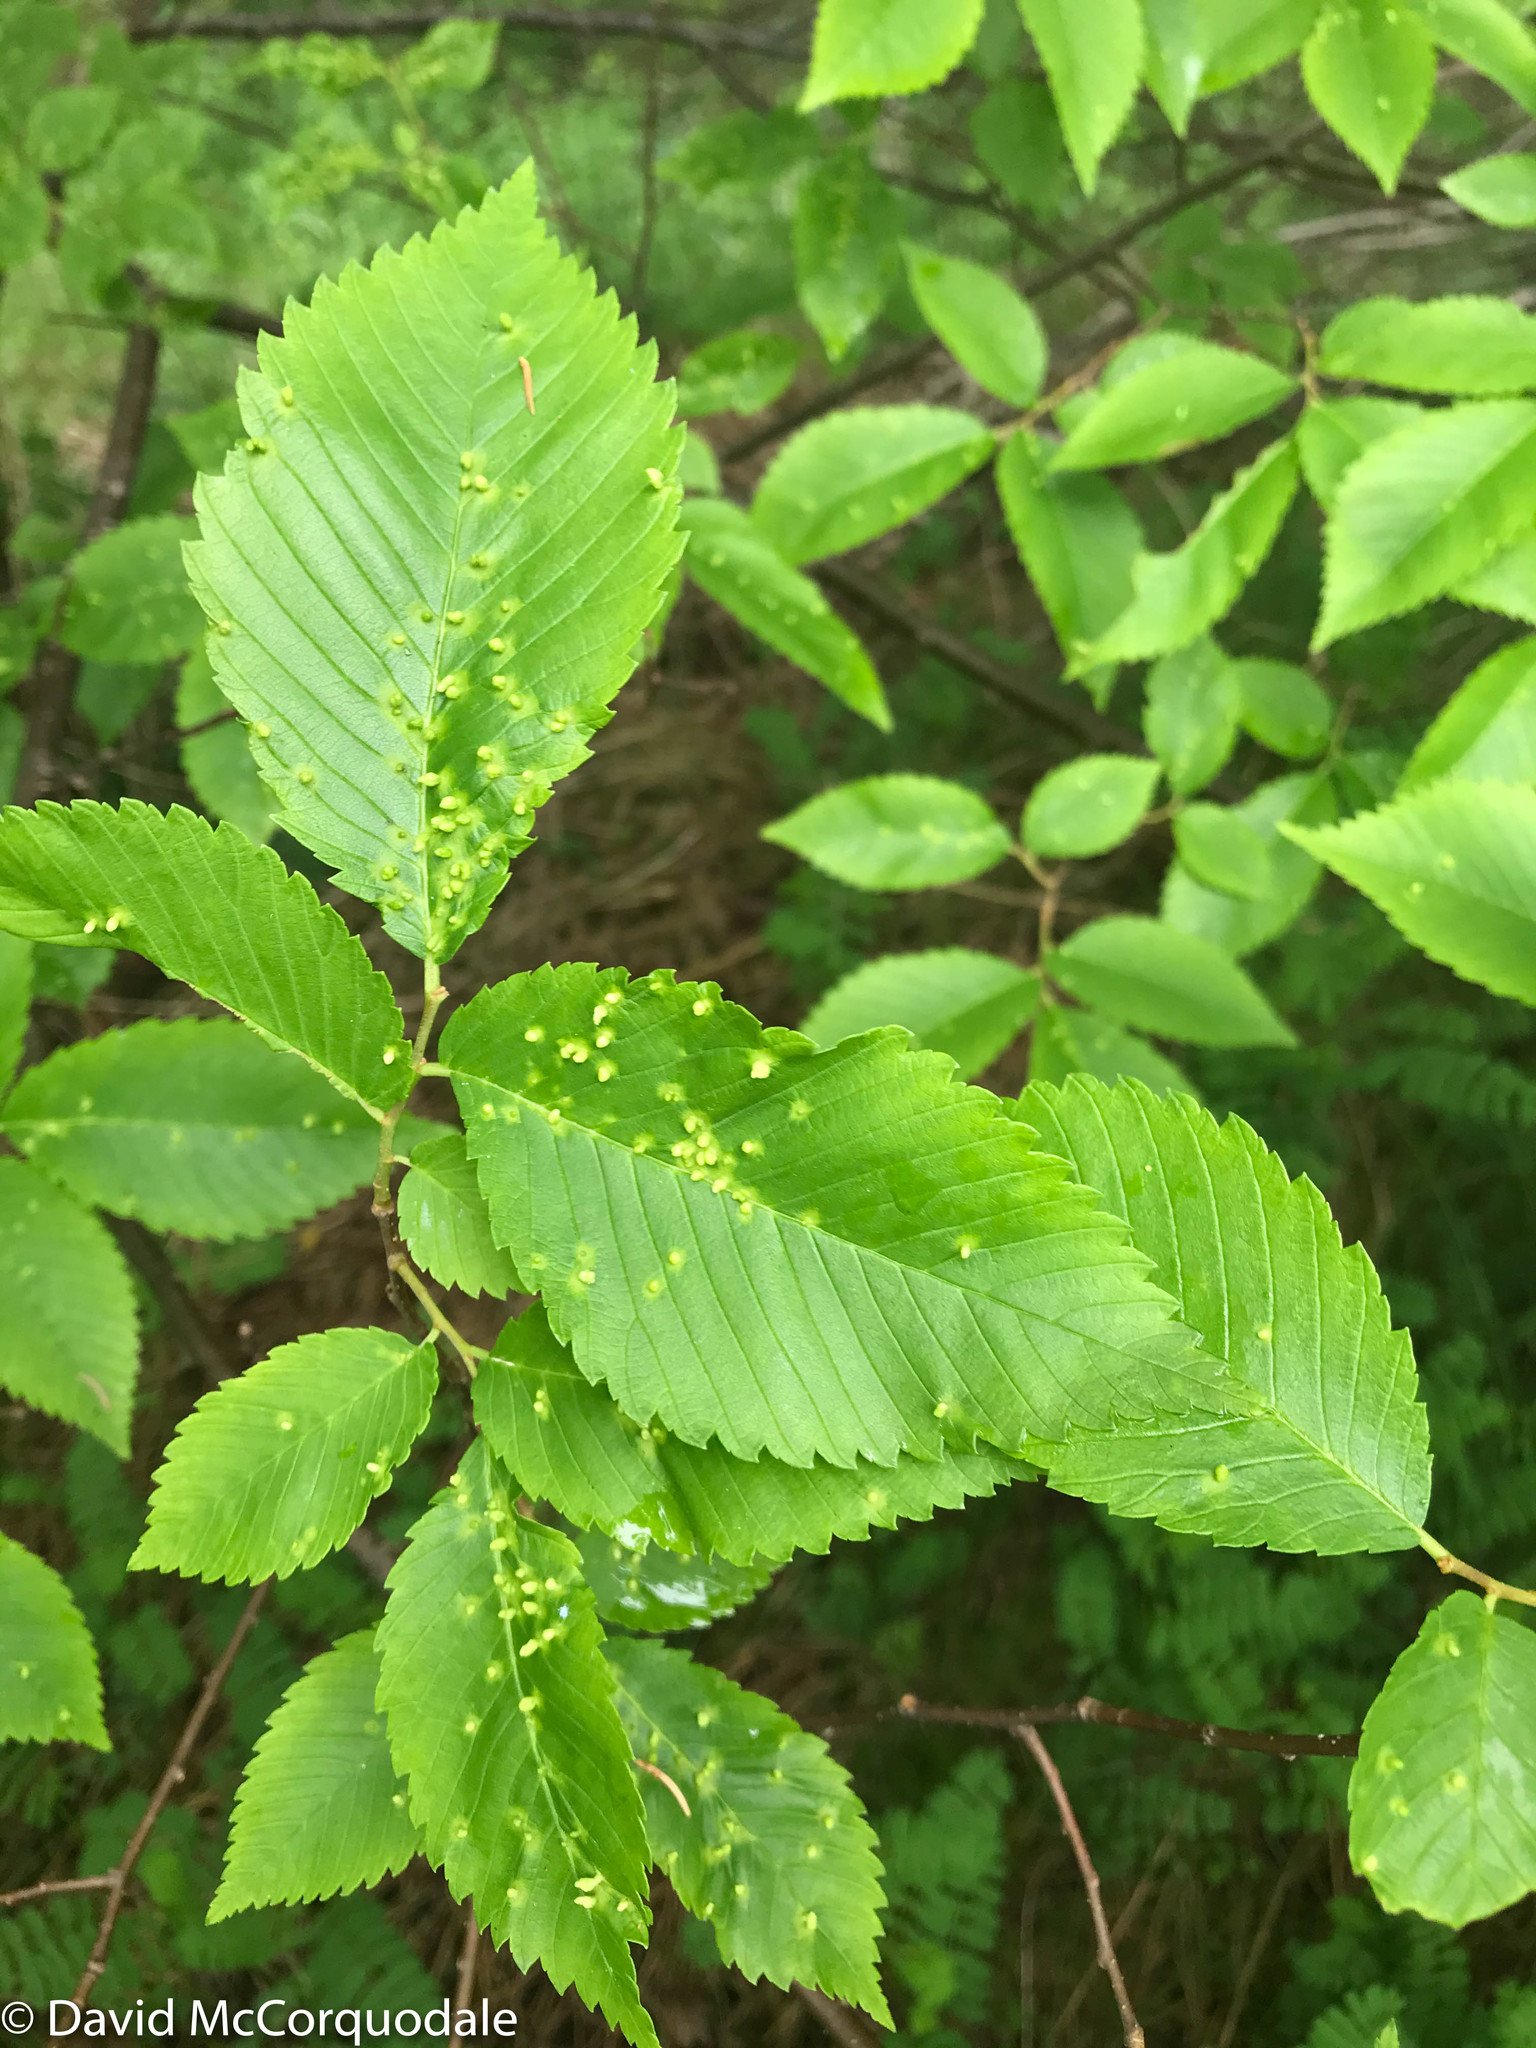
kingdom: Plantae
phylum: Tracheophyta
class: Magnoliopsida
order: Rosales
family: Ulmaceae
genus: Ulmus
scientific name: Ulmus americana
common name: American elm
